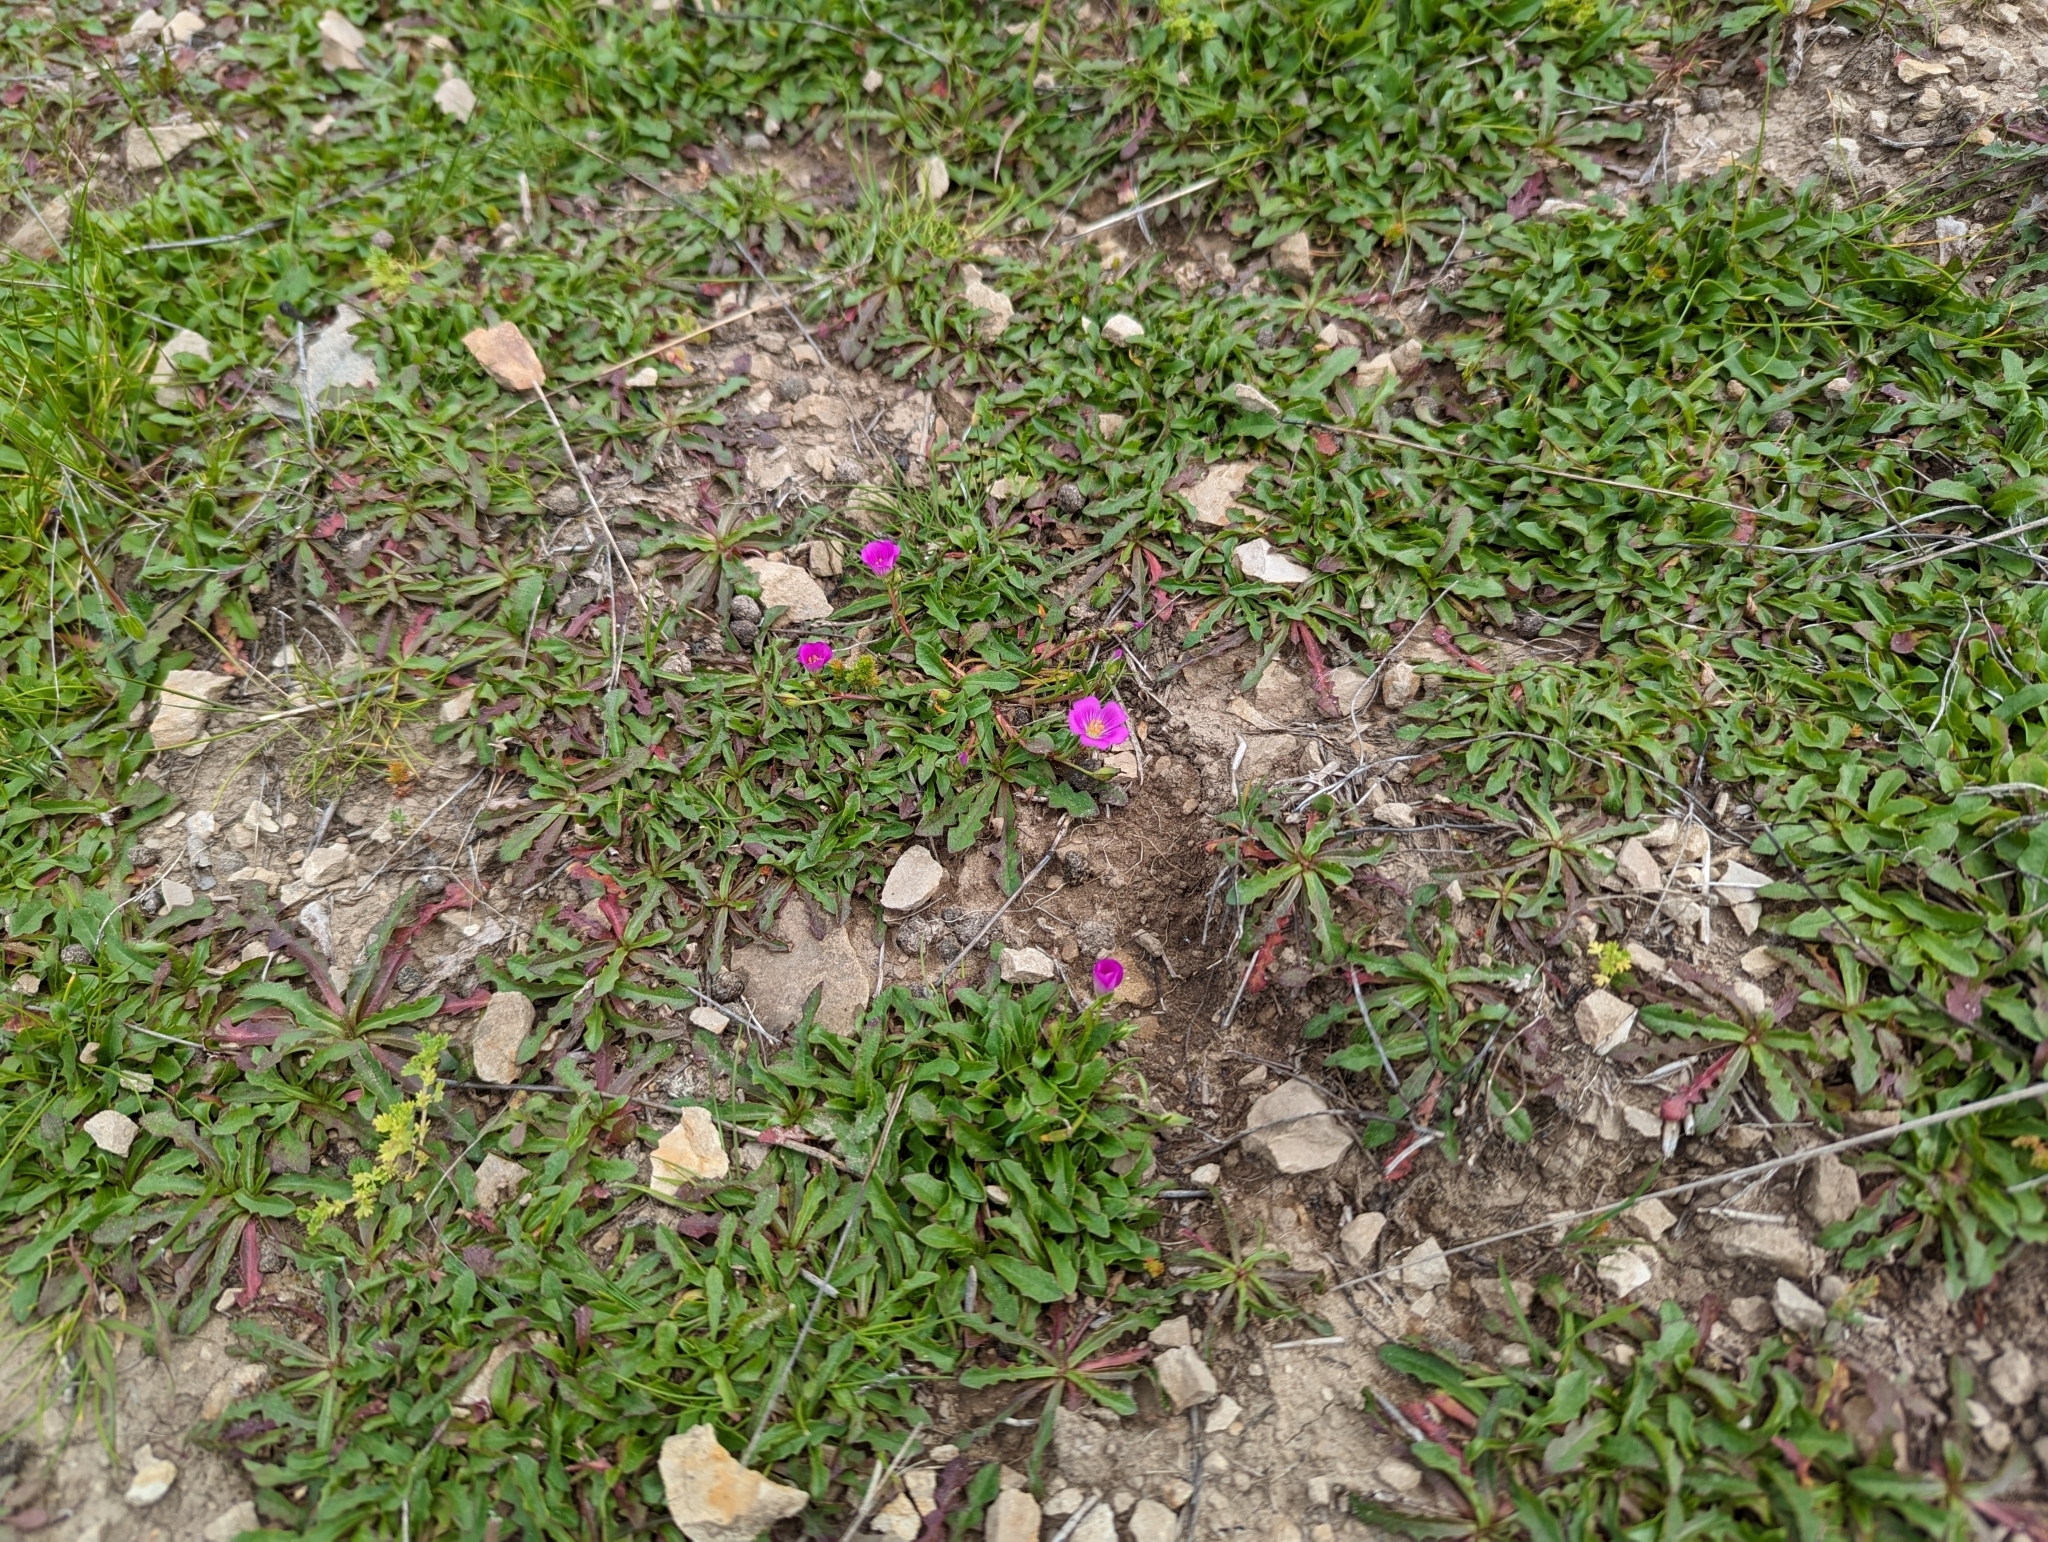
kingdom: Plantae
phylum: Tracheophyta
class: Magnoliopsida
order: Caryophyllales
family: Montiaceae
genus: Calandrinia
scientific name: Calandrinia menziesii
